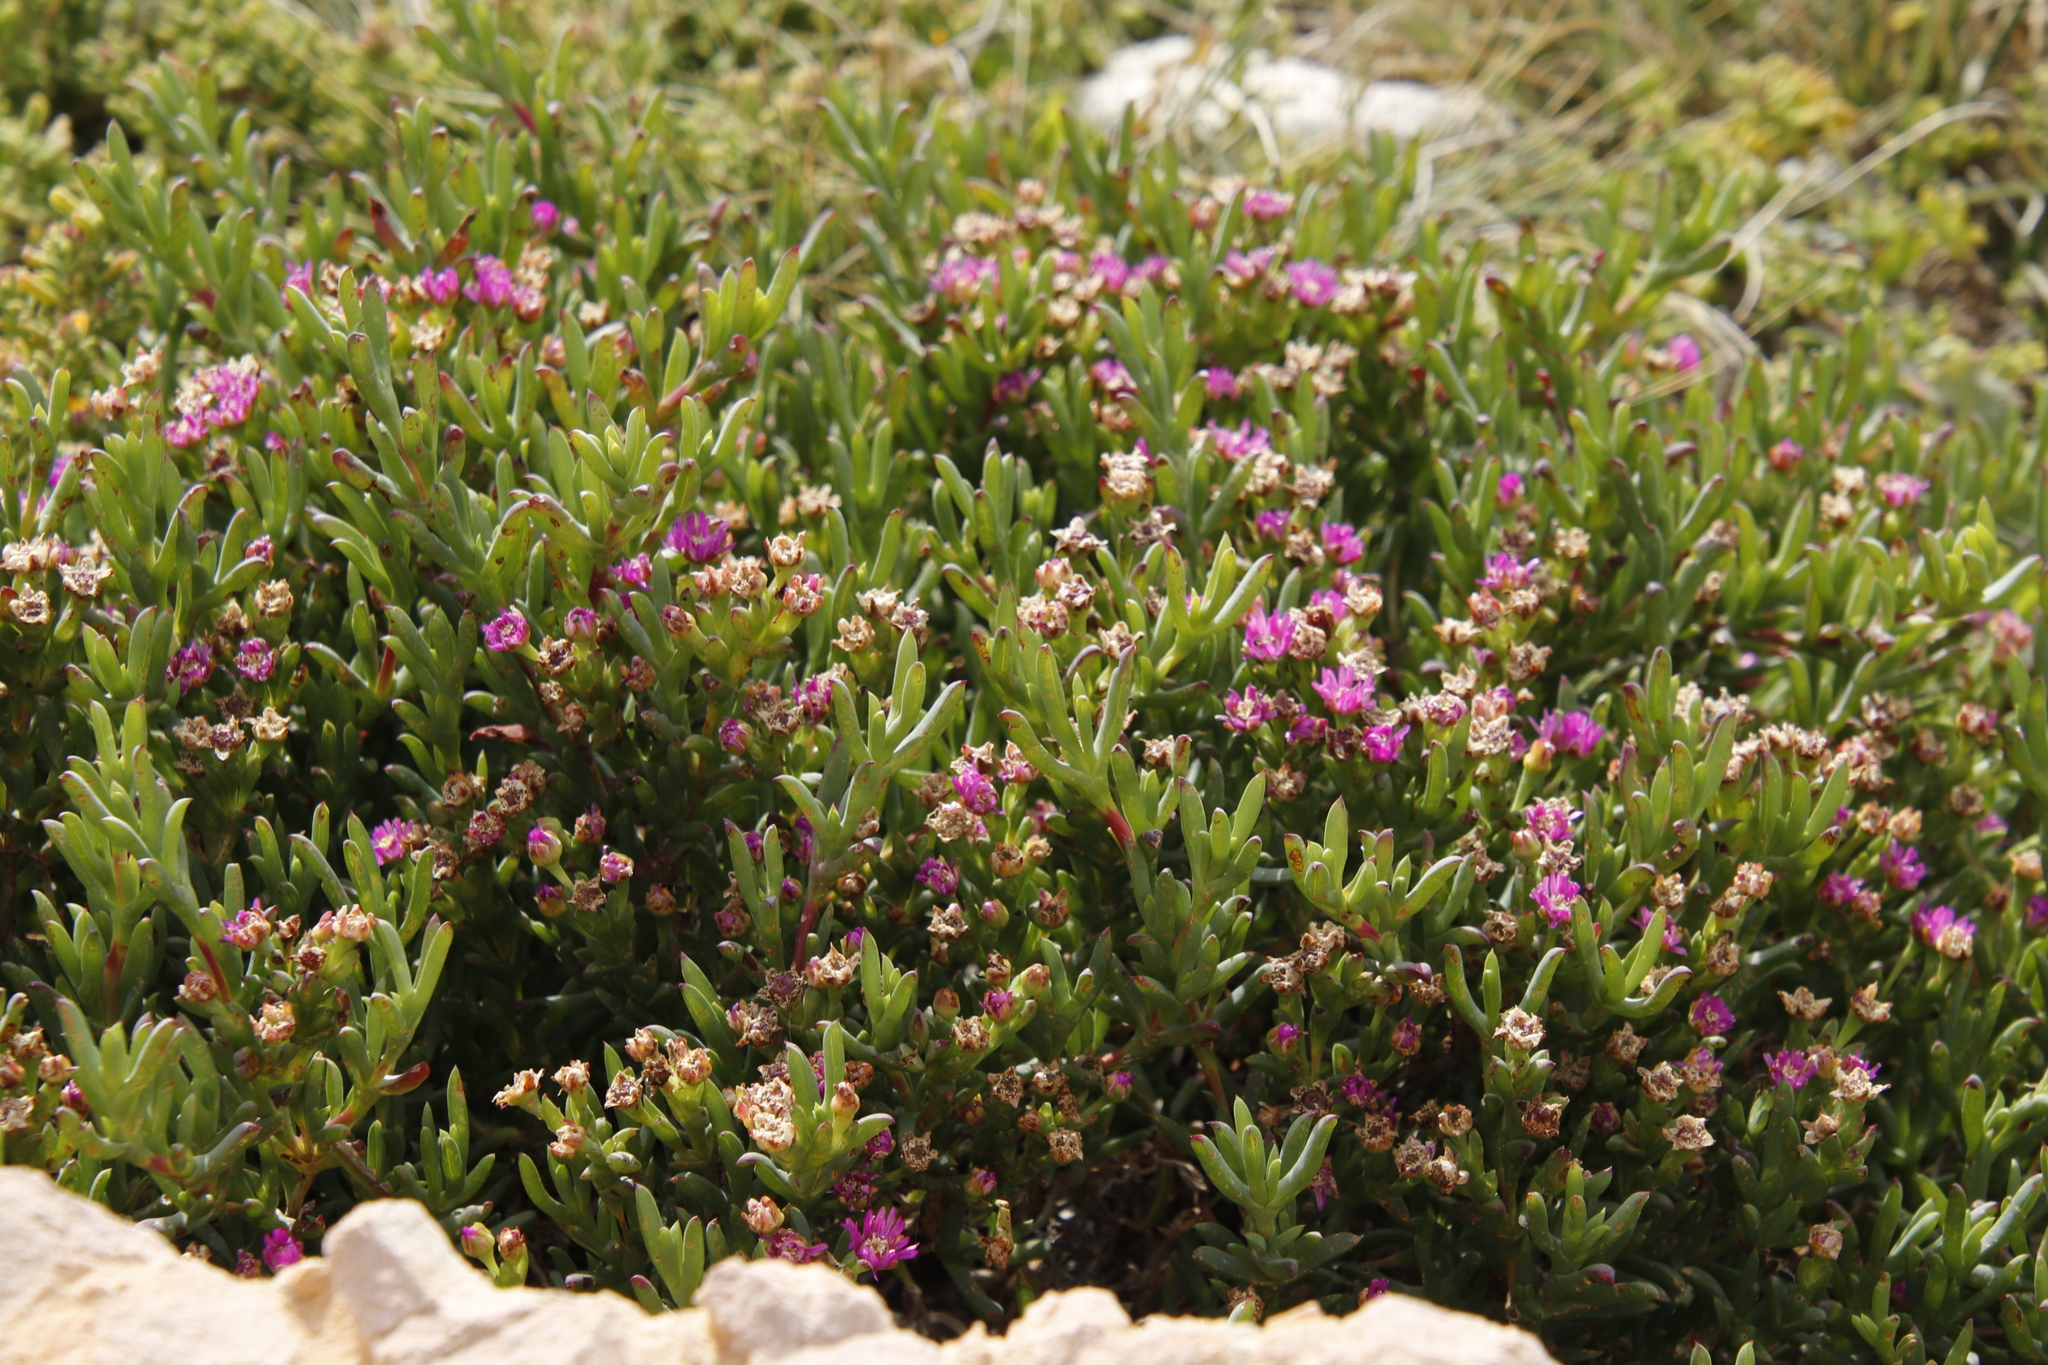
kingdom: Plantae
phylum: Tracheophyta
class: Magnoliopsida
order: Caryophyllales
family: Aizoaceae
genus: Ruschia
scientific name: Ruschia macowanii
